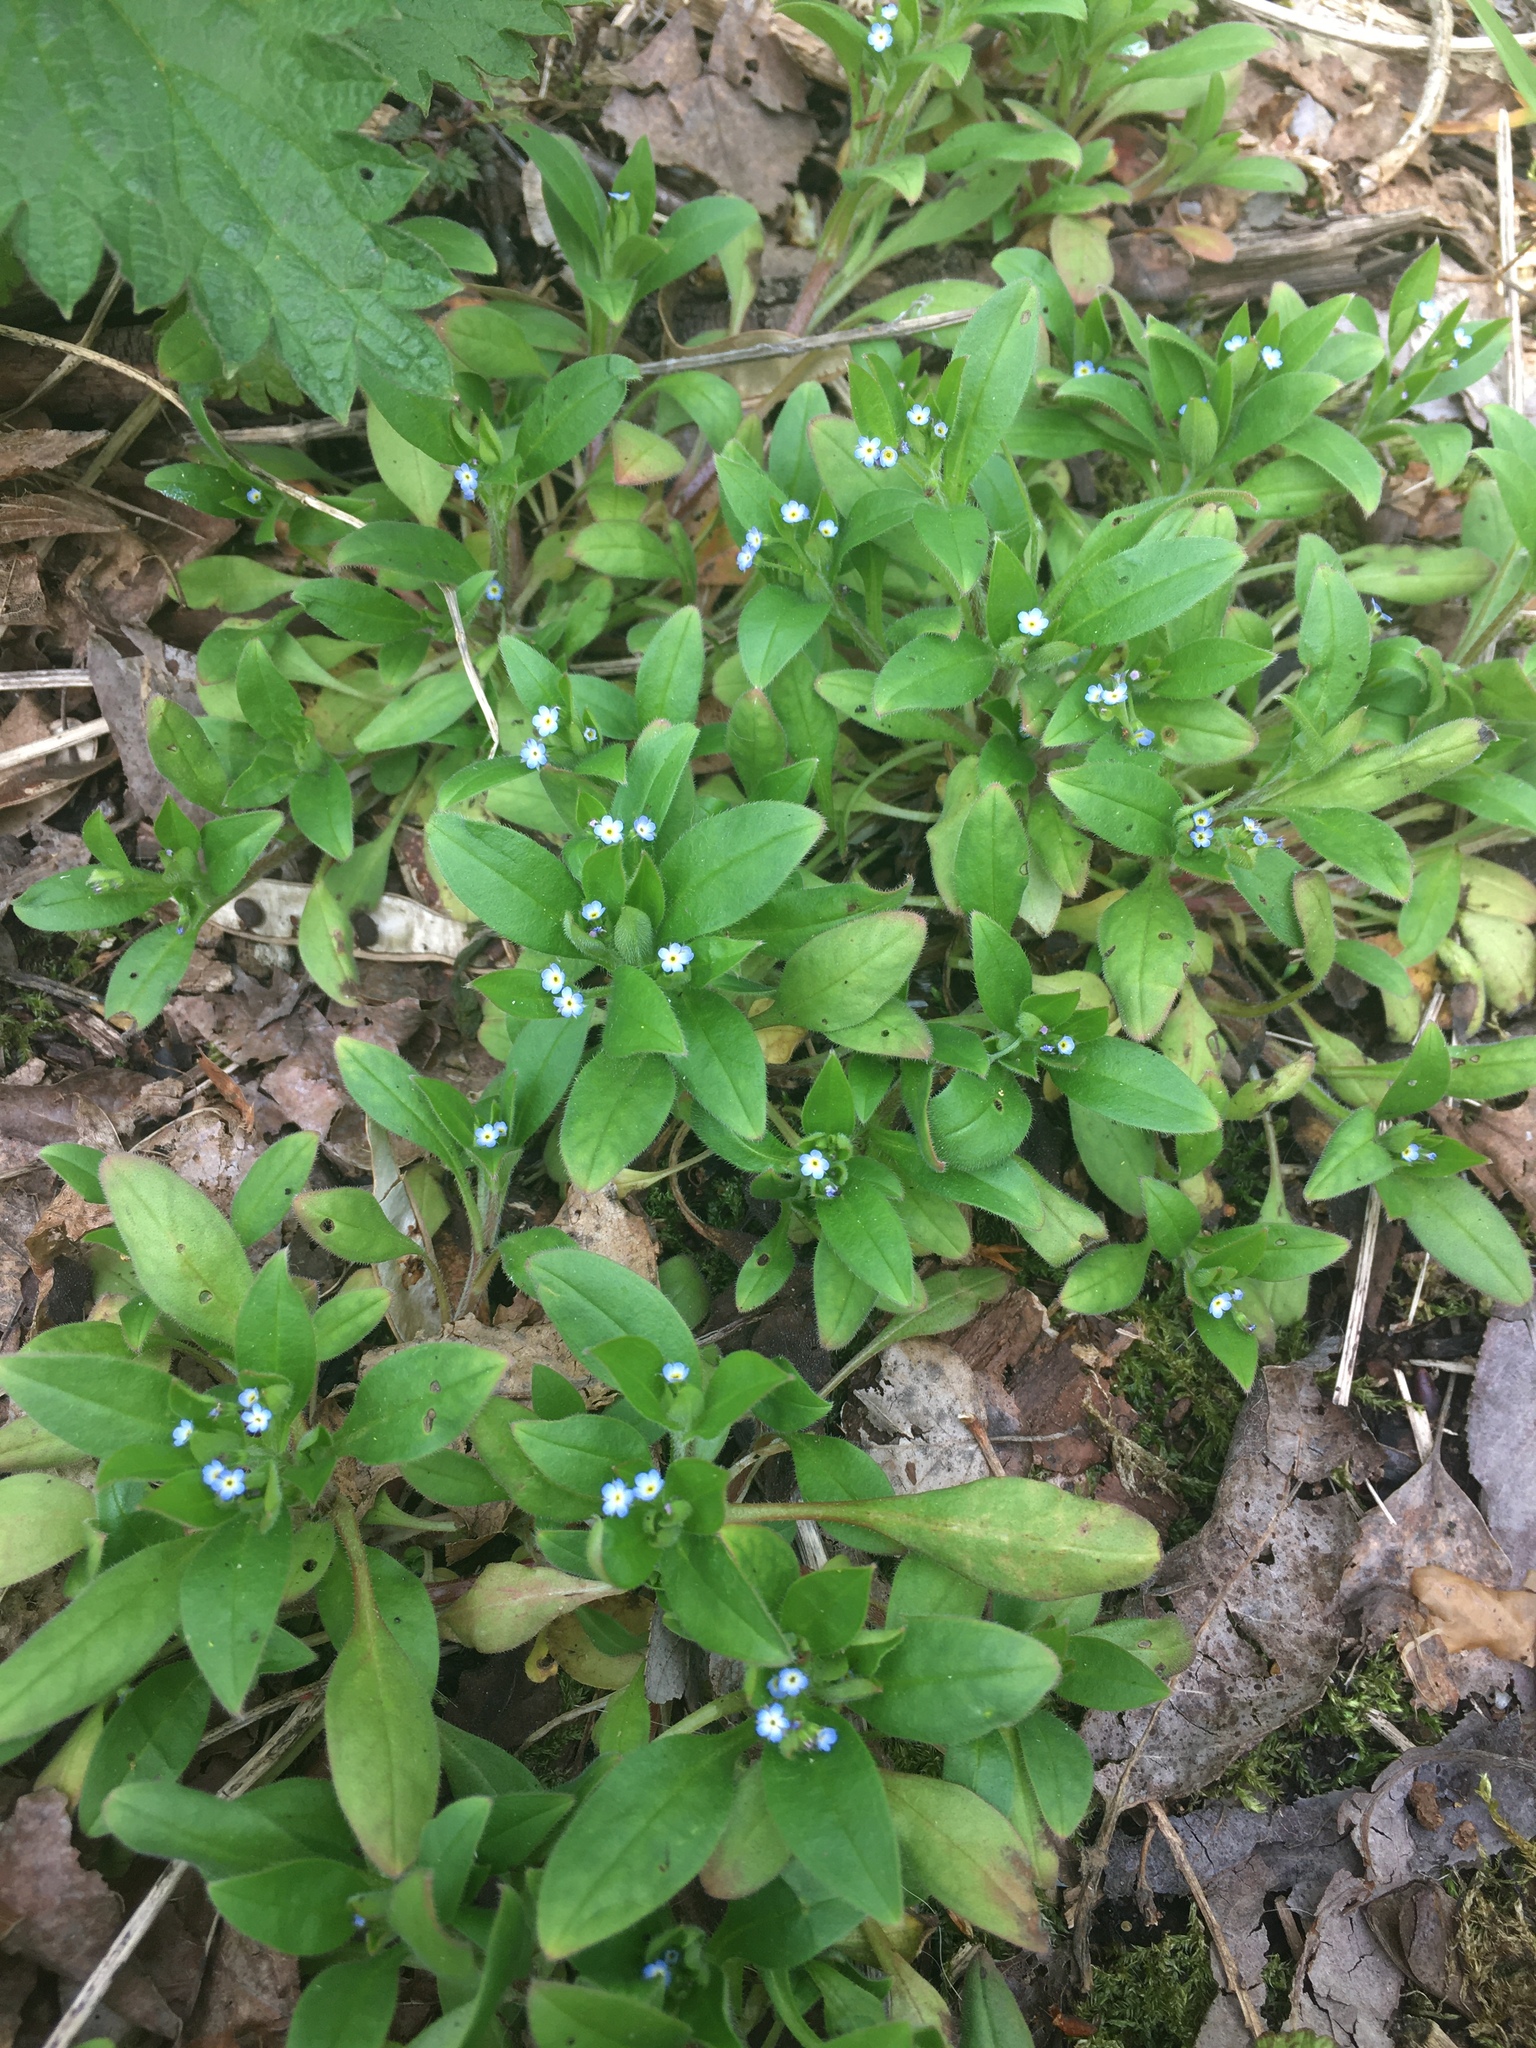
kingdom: Plantae
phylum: Tracheophyta
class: Magnoliopsida
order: Boraginales
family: Boraginaceae
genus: Myosotis
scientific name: Myosotis sparsiflora
